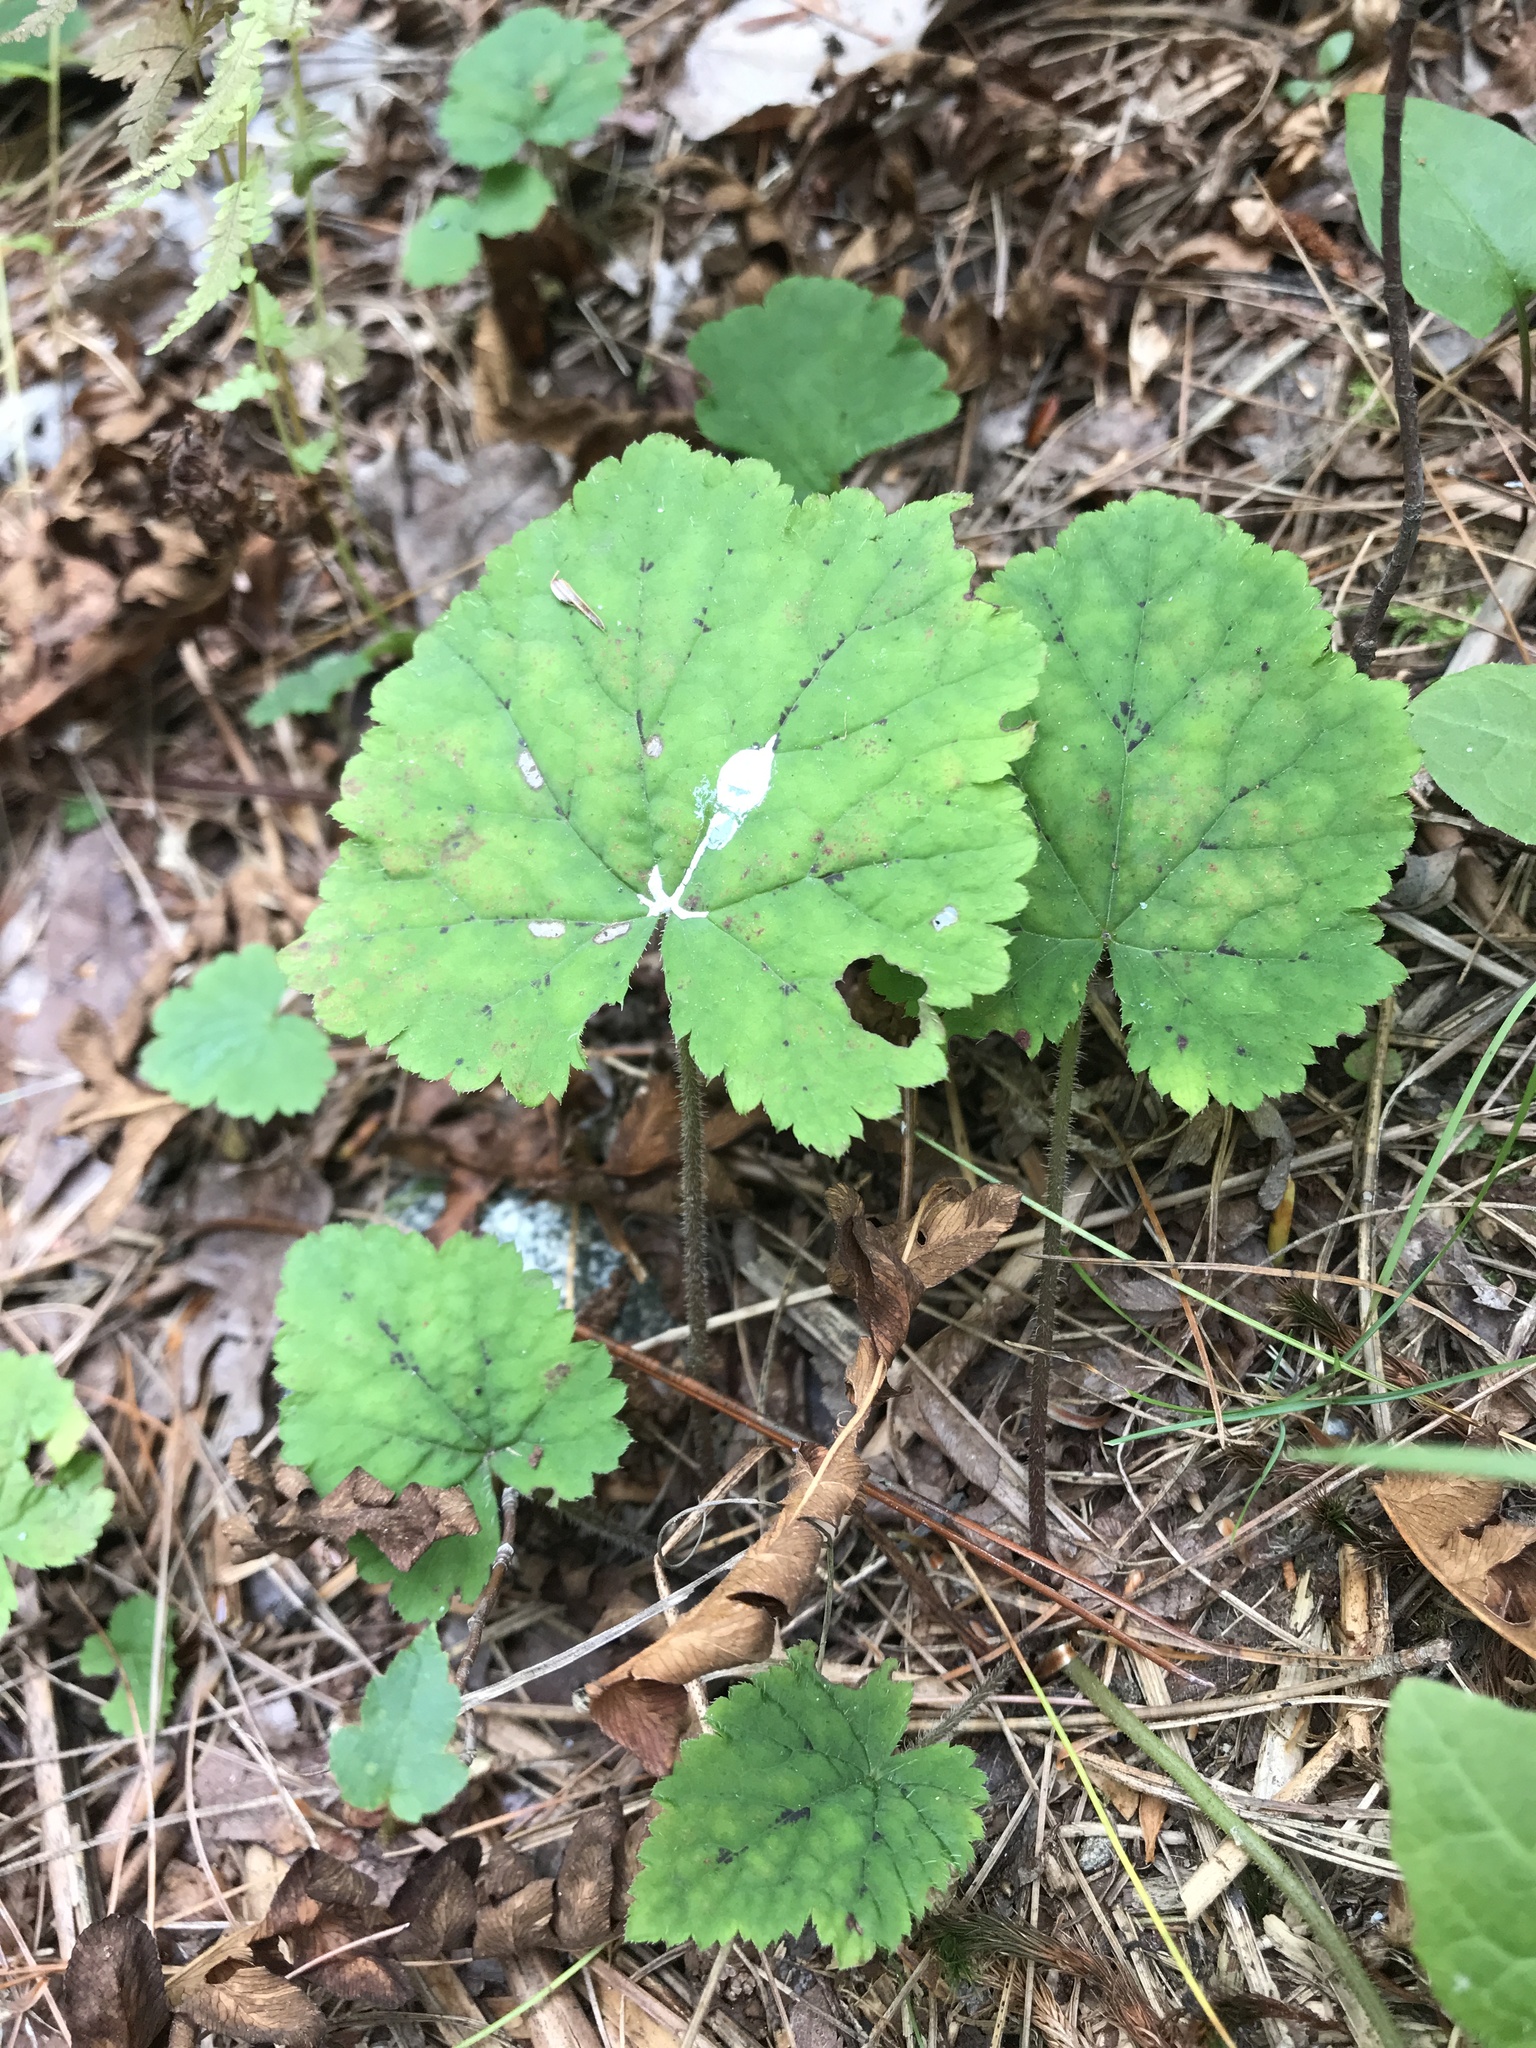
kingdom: Plantae
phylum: Tracheophyta
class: Magnoliopsida
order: Saxifragales
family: Saxifragaceae
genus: Tiarella
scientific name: Tiarella stolonifera
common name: Stoloniferous foamflower
